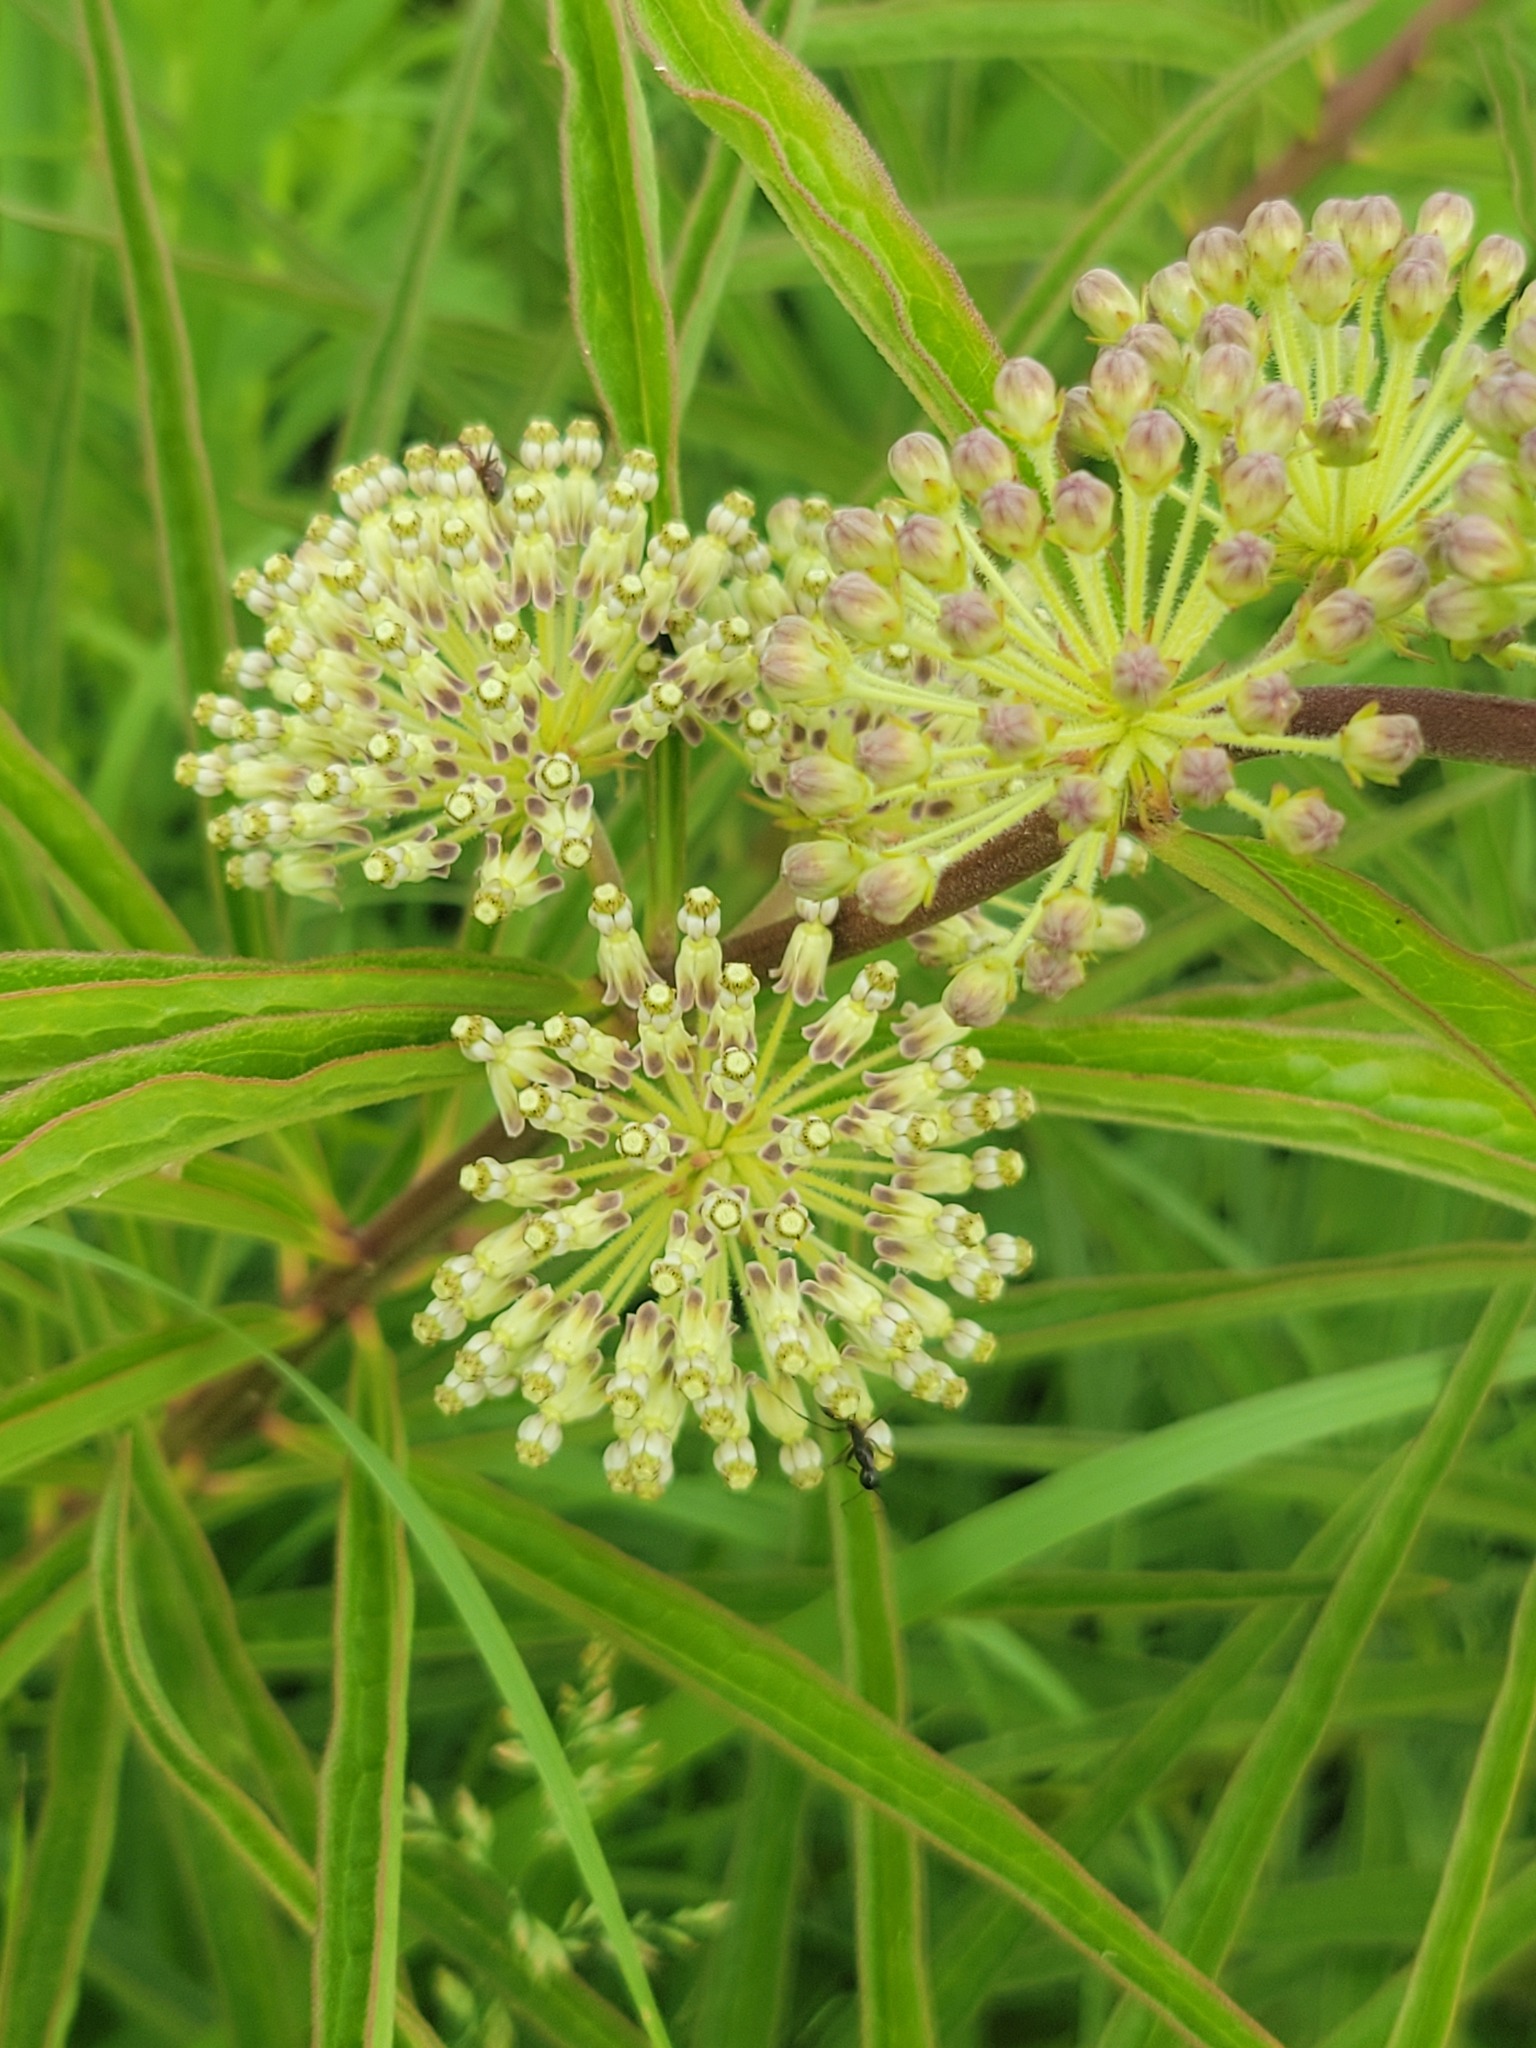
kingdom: Plantae
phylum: Tracheophyta
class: Magnoliopsida
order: Gentianales
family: Apocynaceae
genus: Asclepias
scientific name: Asclepias hirtella
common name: Prairie milkweed
